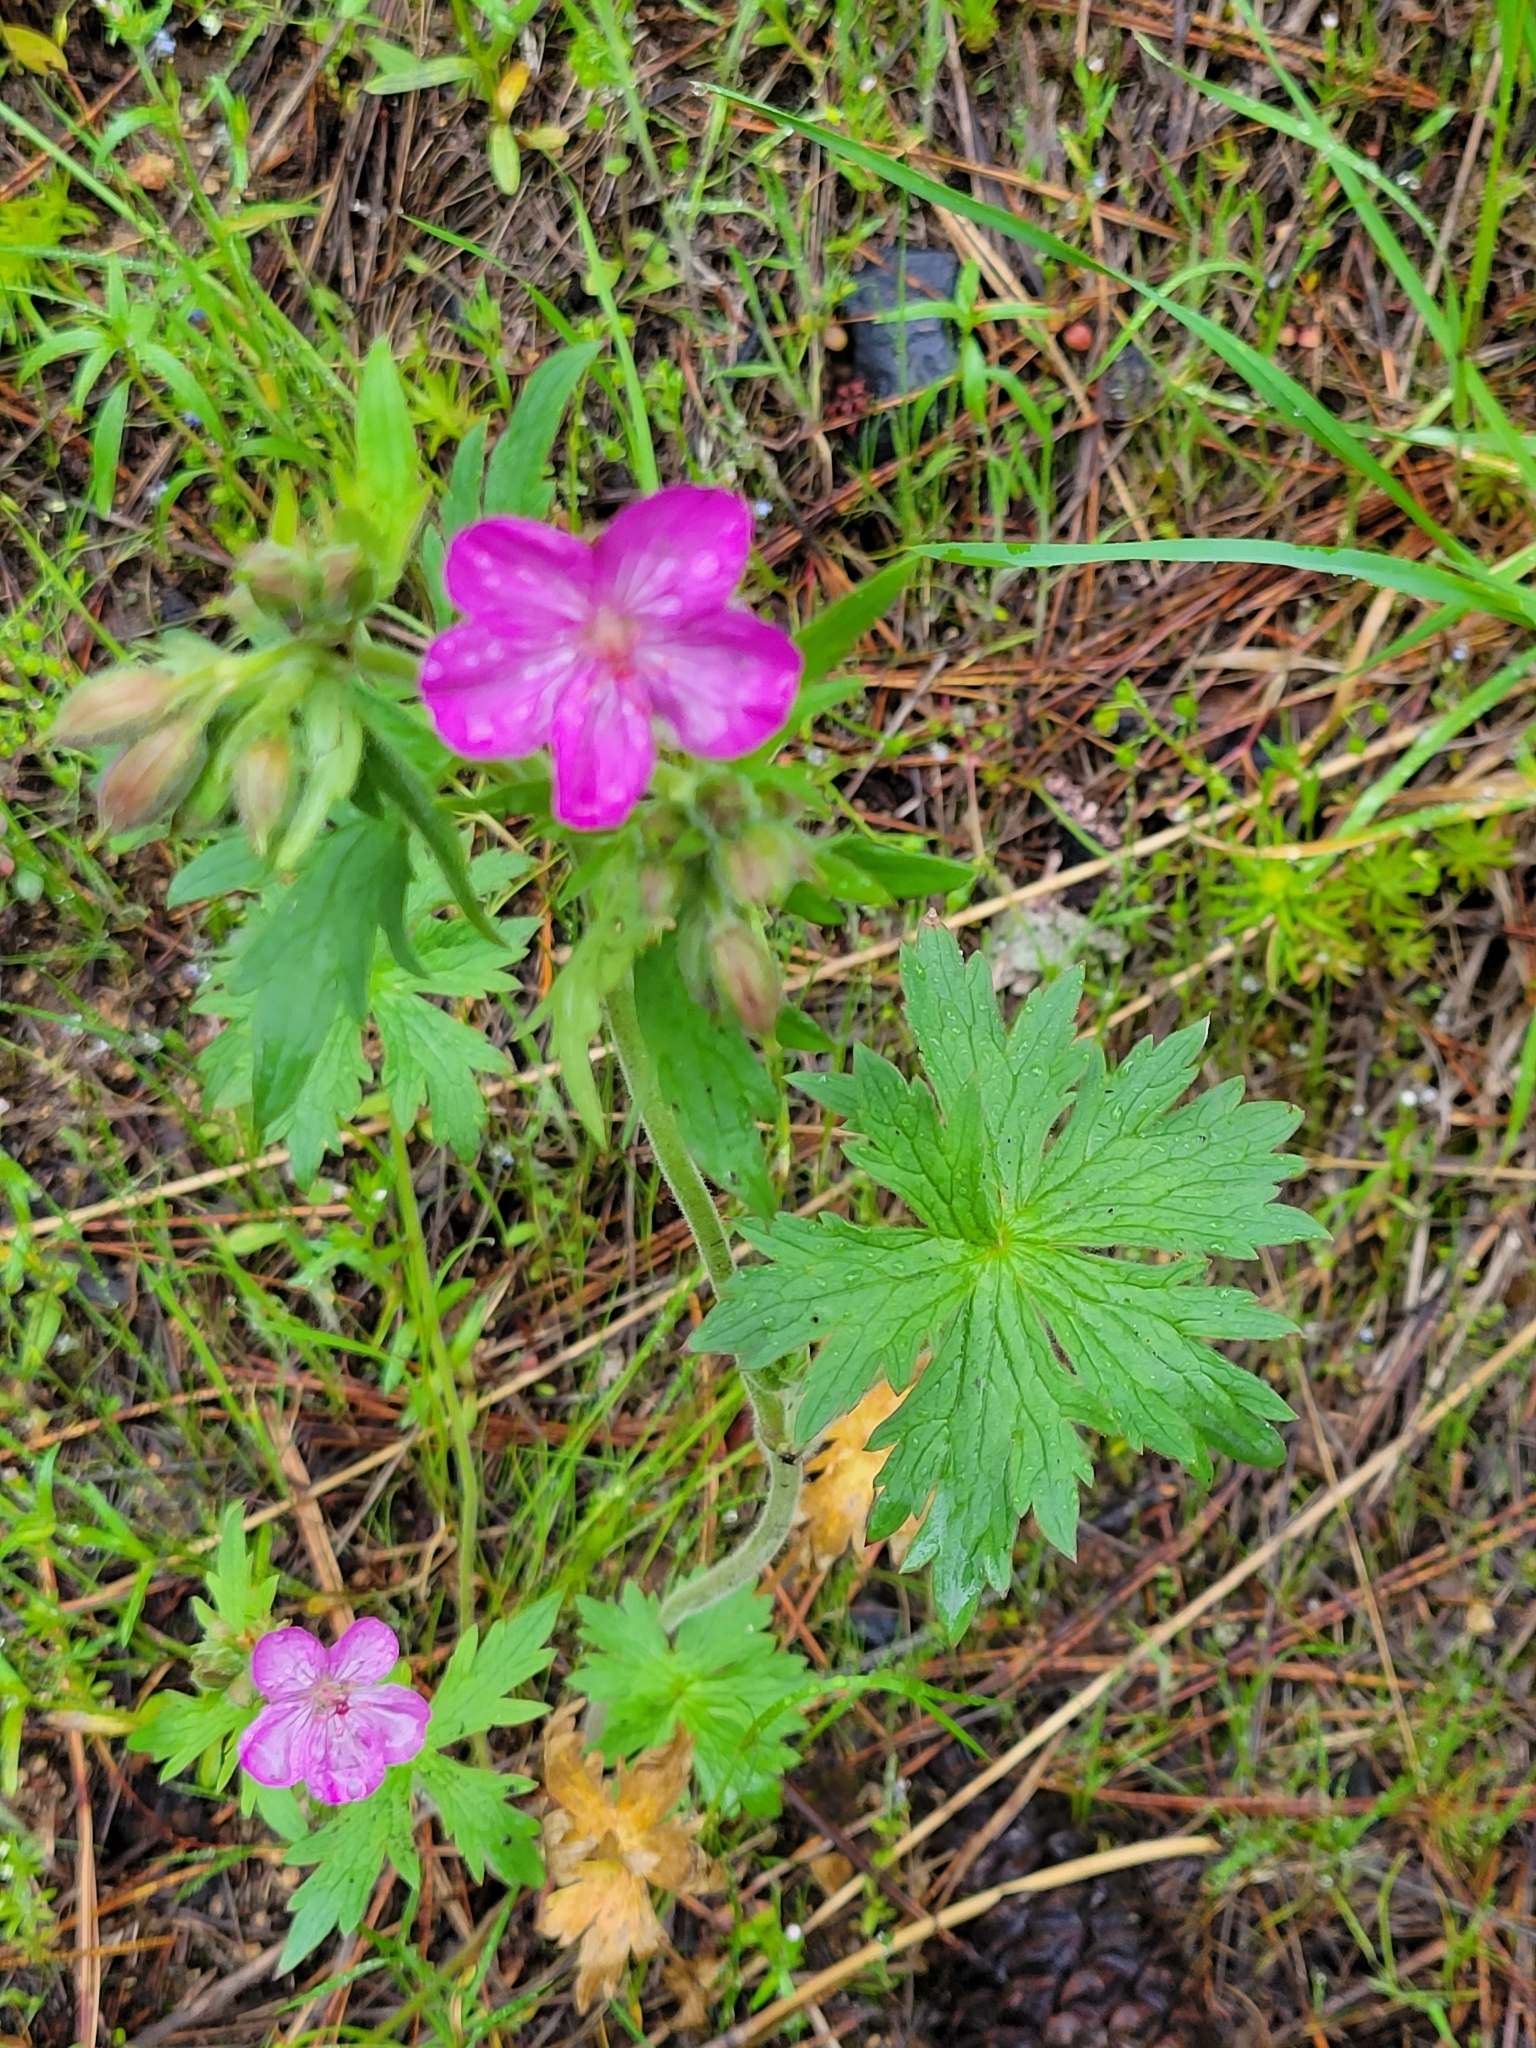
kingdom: Plantae
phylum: Tracheophyta
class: Magnoliopsida
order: Geraniales
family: Geraniaceae
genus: Geranium
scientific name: Geranium viscosissimum
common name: Purple geranium
